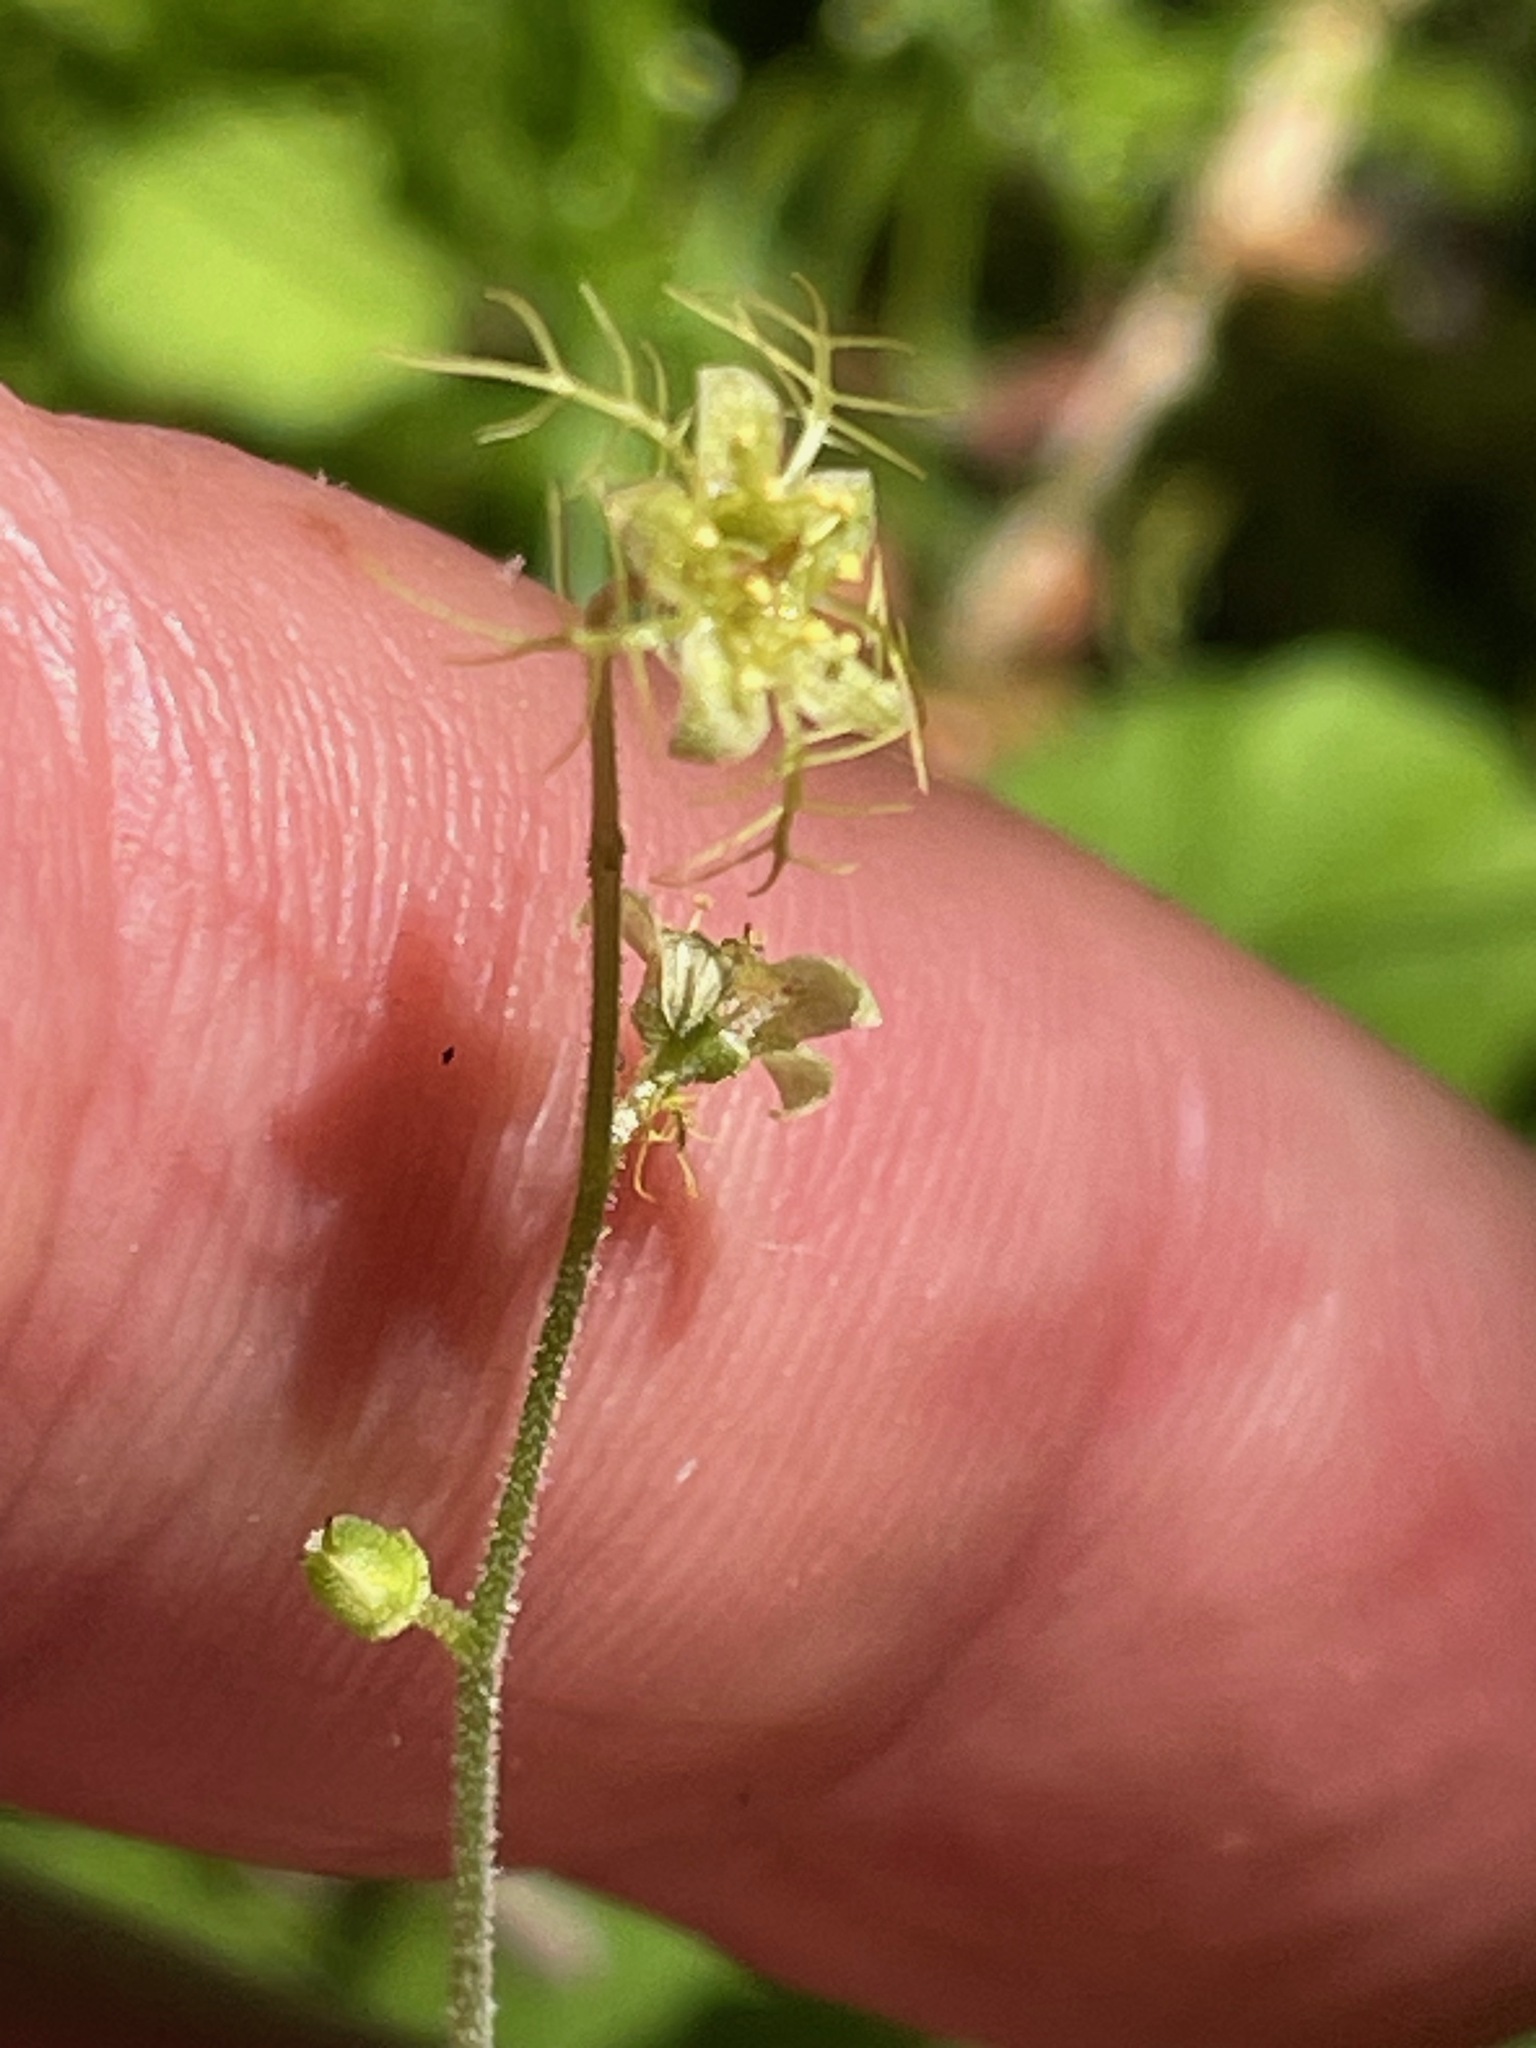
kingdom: Plantae
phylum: Tracheophyta
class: Magnoliopsida
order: Saxifragales
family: Saxifragaceae
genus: Mitella
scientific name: Mitella nuda
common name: Bare-stemmed bishop's-cap
